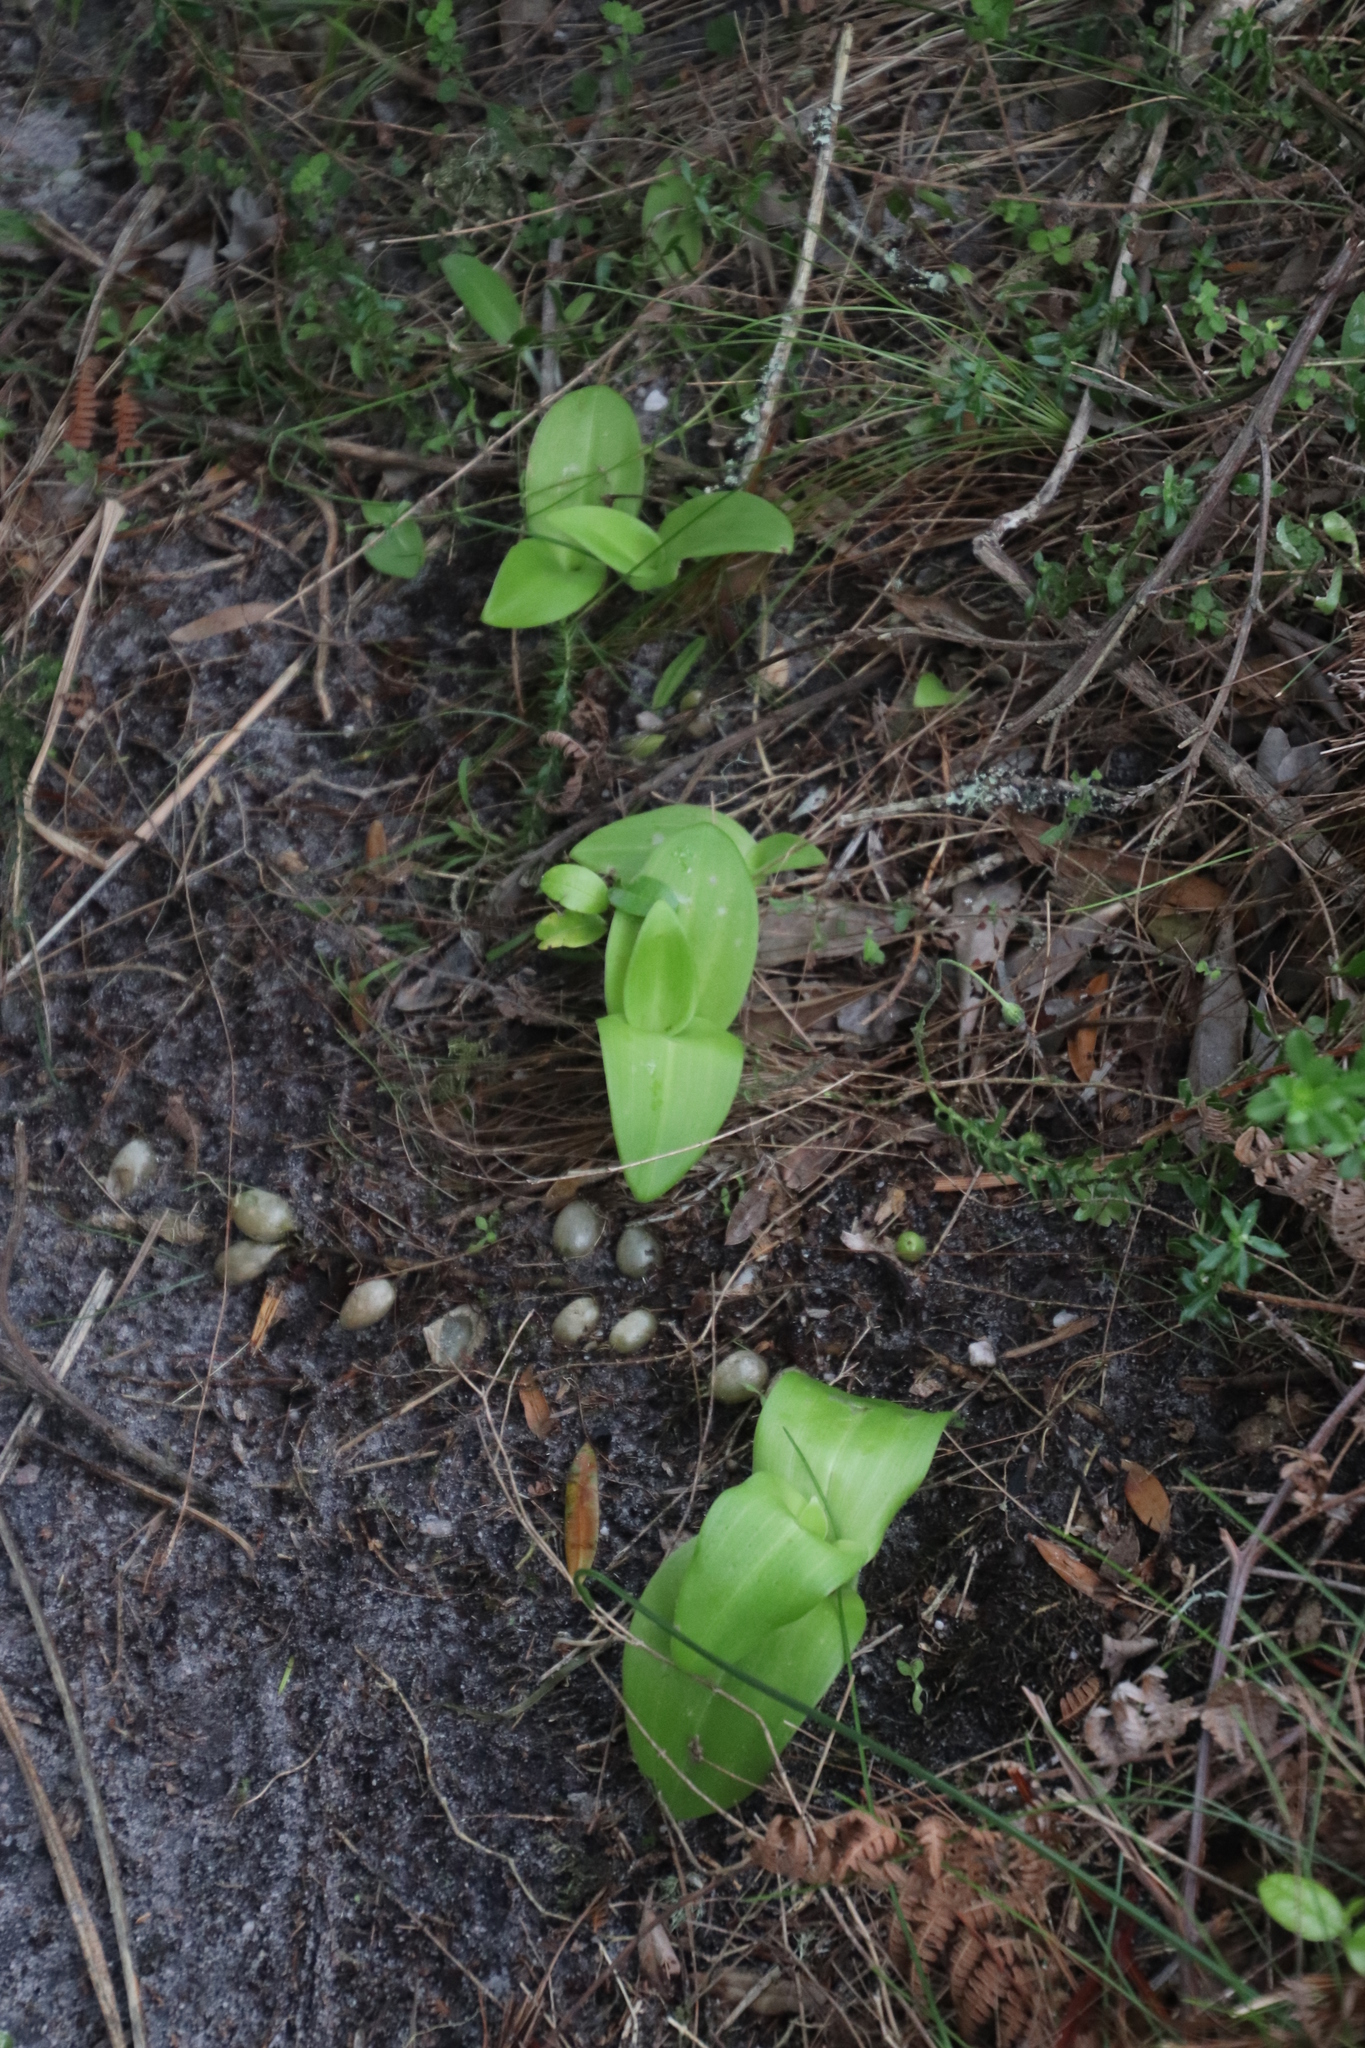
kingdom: Plantae
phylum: Tracheophyta
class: Liliopsida
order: Asparagales
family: Orchidaceae
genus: Satyrium
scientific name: Satyrium odorum
